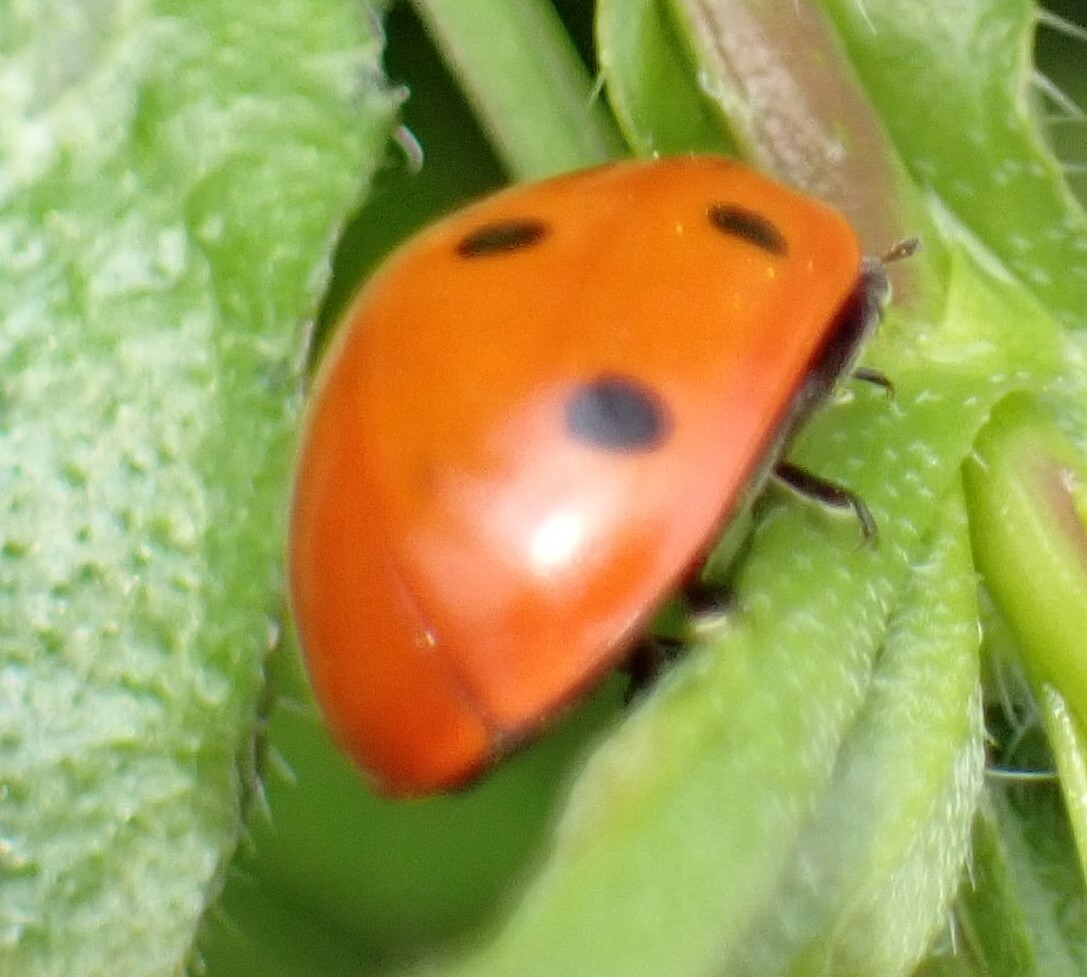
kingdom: Animalia
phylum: Arthropoda
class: Insecta
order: Coleoptera
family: Coccinellidae
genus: Coccinella
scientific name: Coccinella septempunctata
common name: Sevenspotted lady beetle
